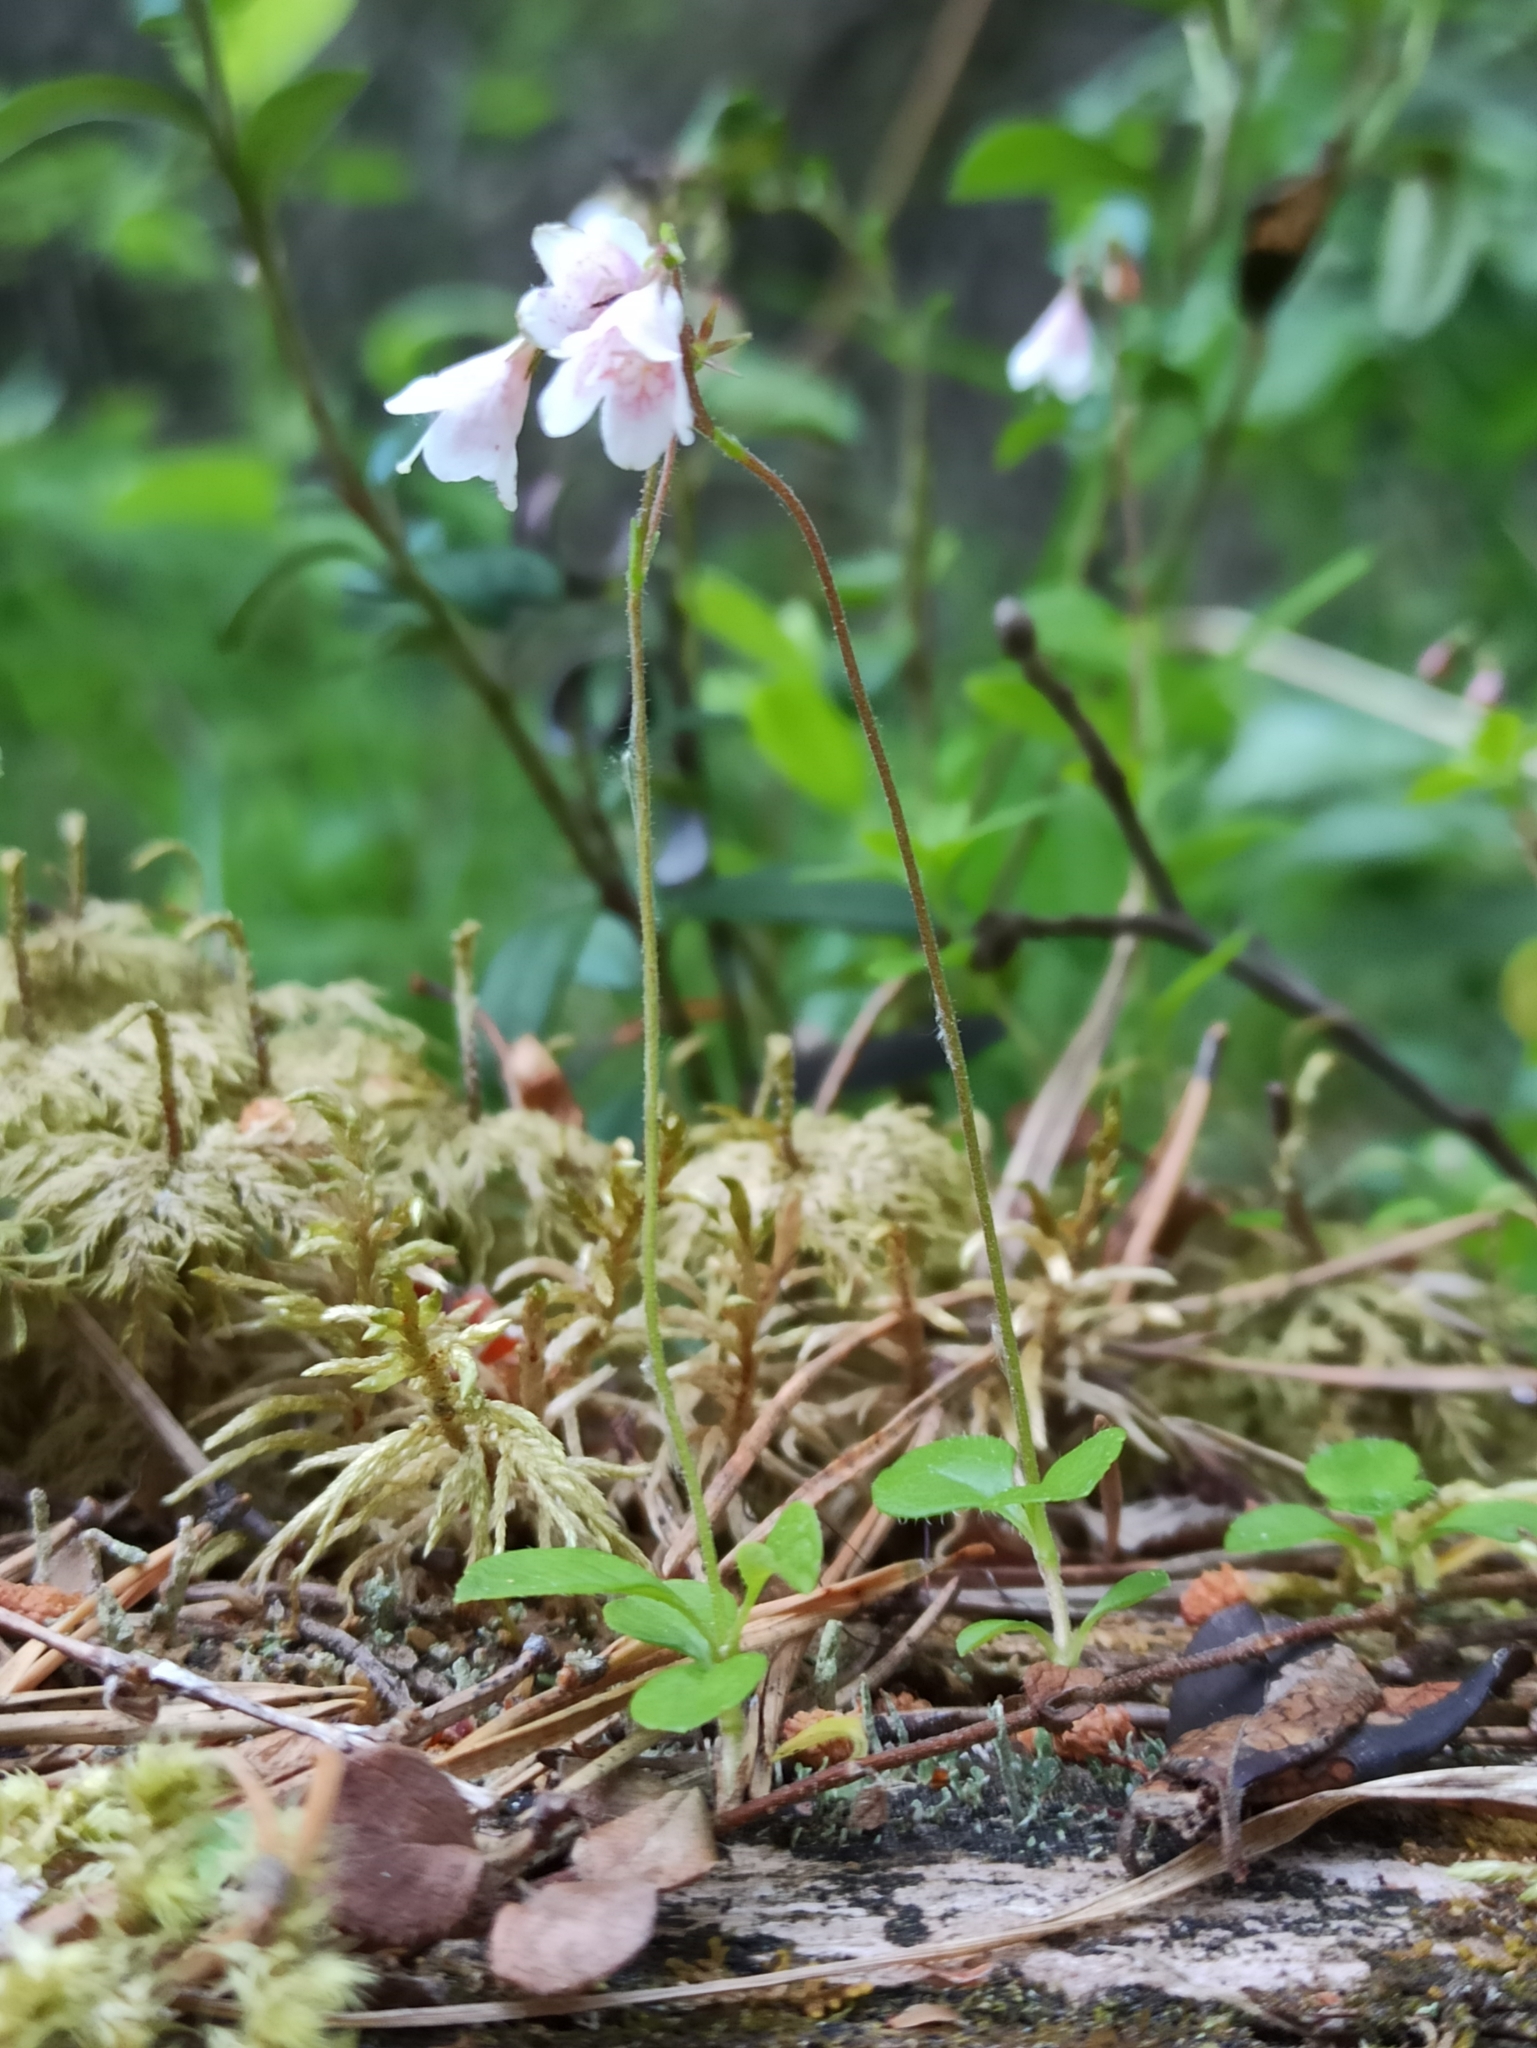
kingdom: Plantae
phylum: Tracheophyta
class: Magnoliopsida
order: Dipsacales
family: Caprifoliaceae
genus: Linnaea
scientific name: Linnaea borealis
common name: Twinflower
